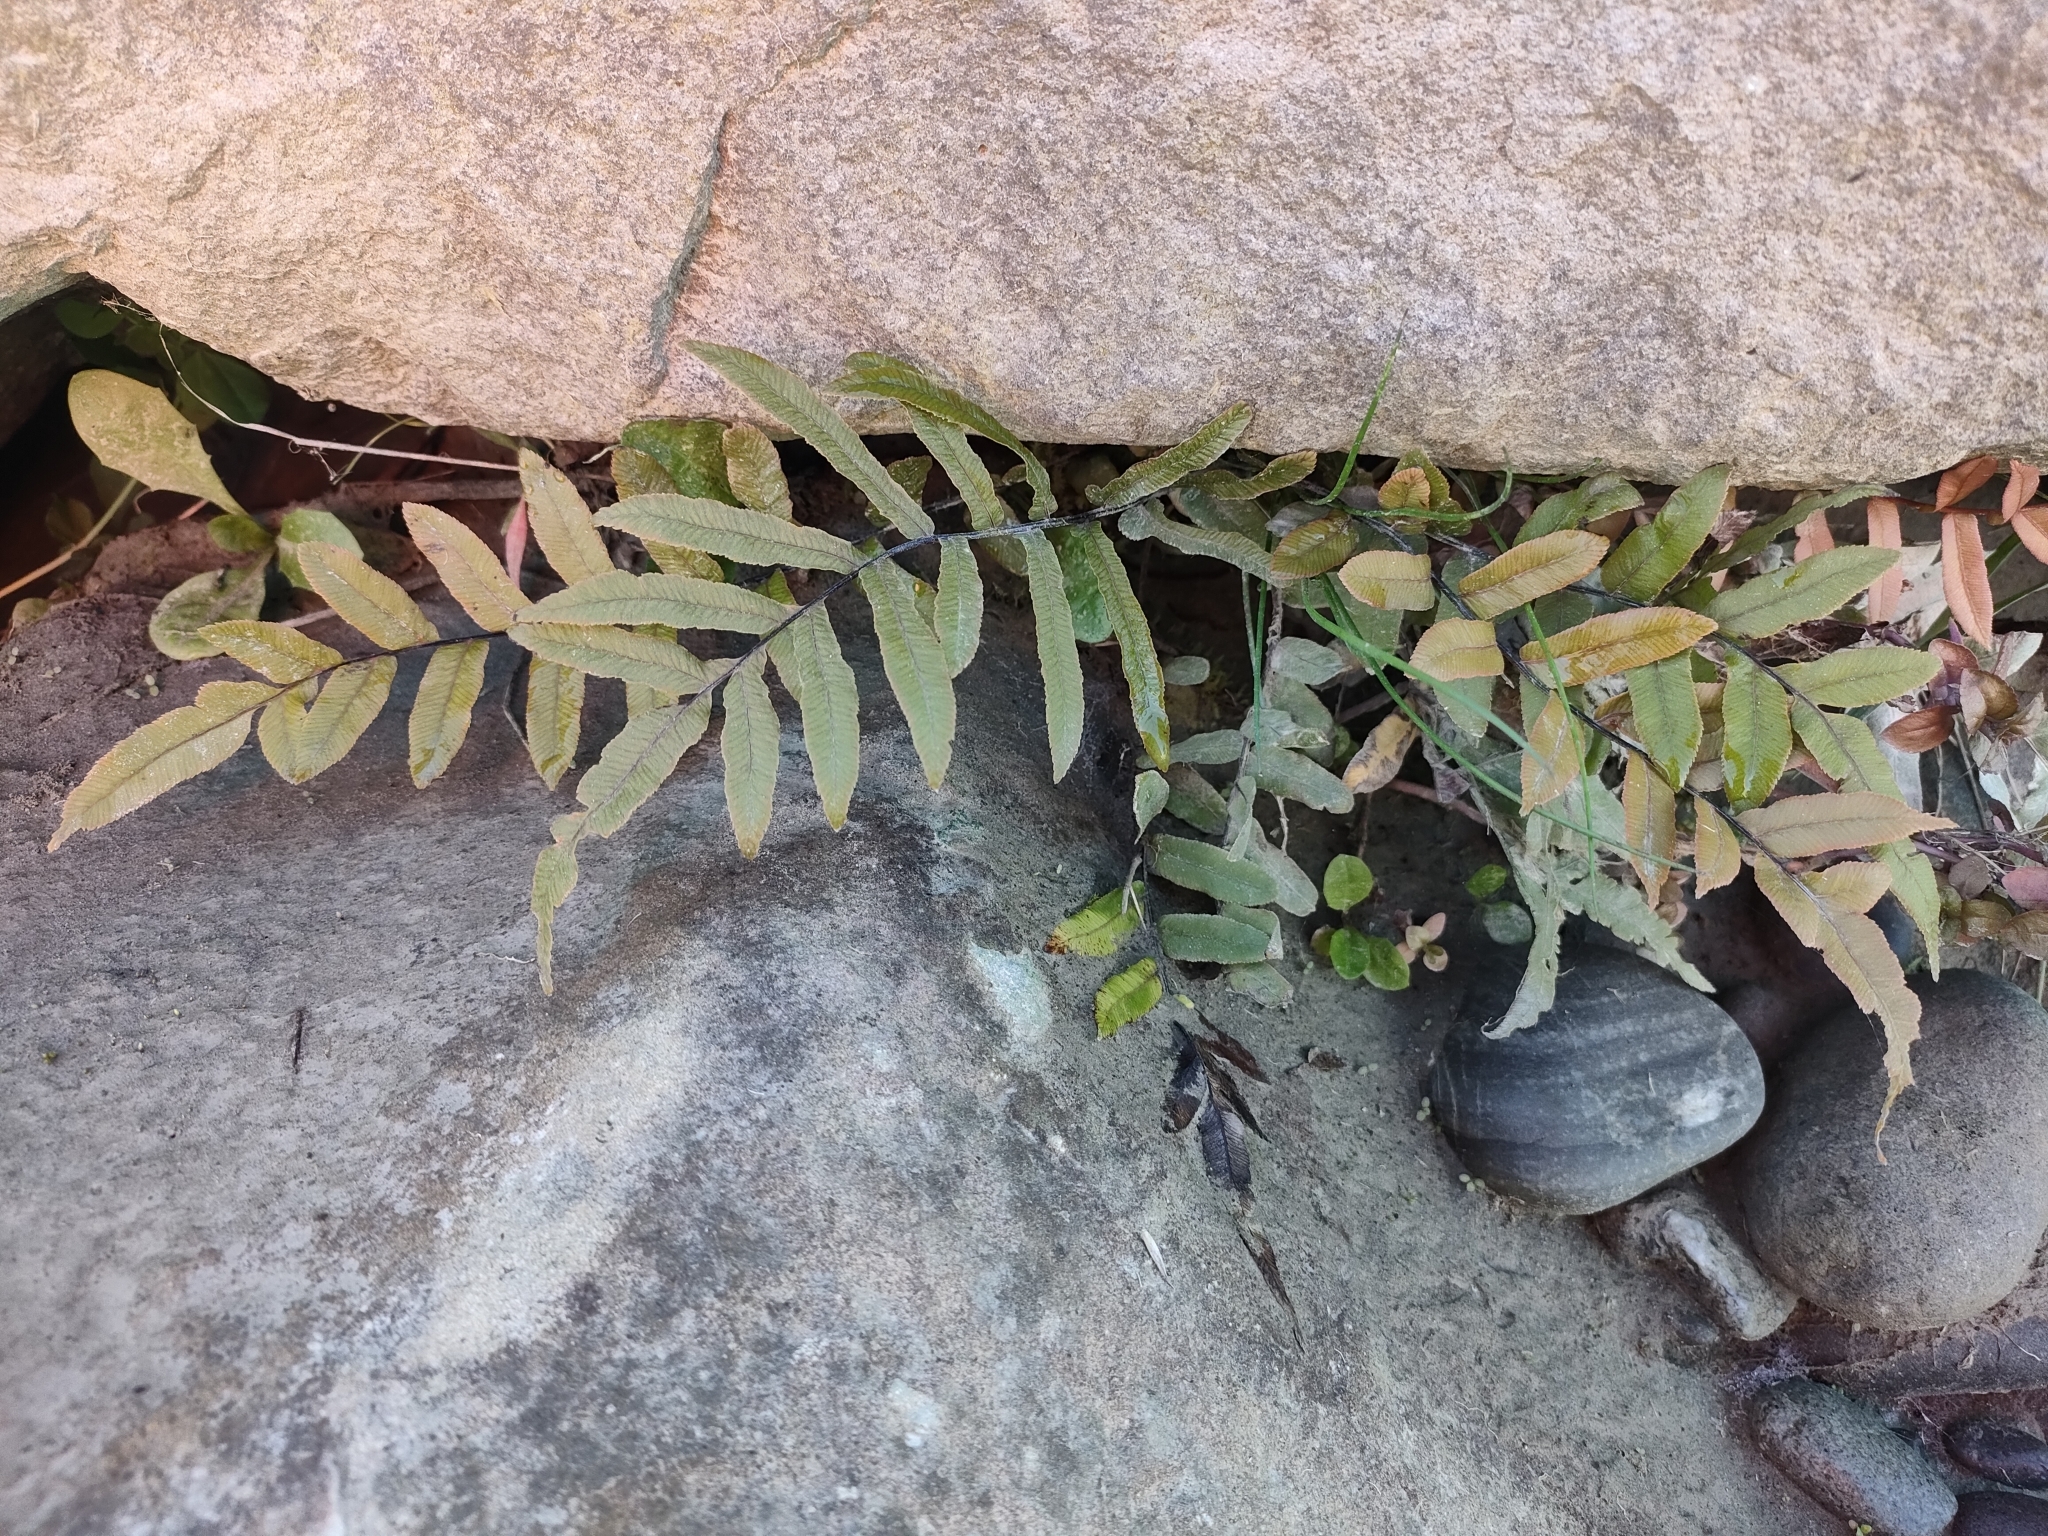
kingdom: Plantae
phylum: Tracheophyta
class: Polypodiopsida
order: Polypodiales
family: Blechnaceae
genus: Parablechnum
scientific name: Parablechnum minus
